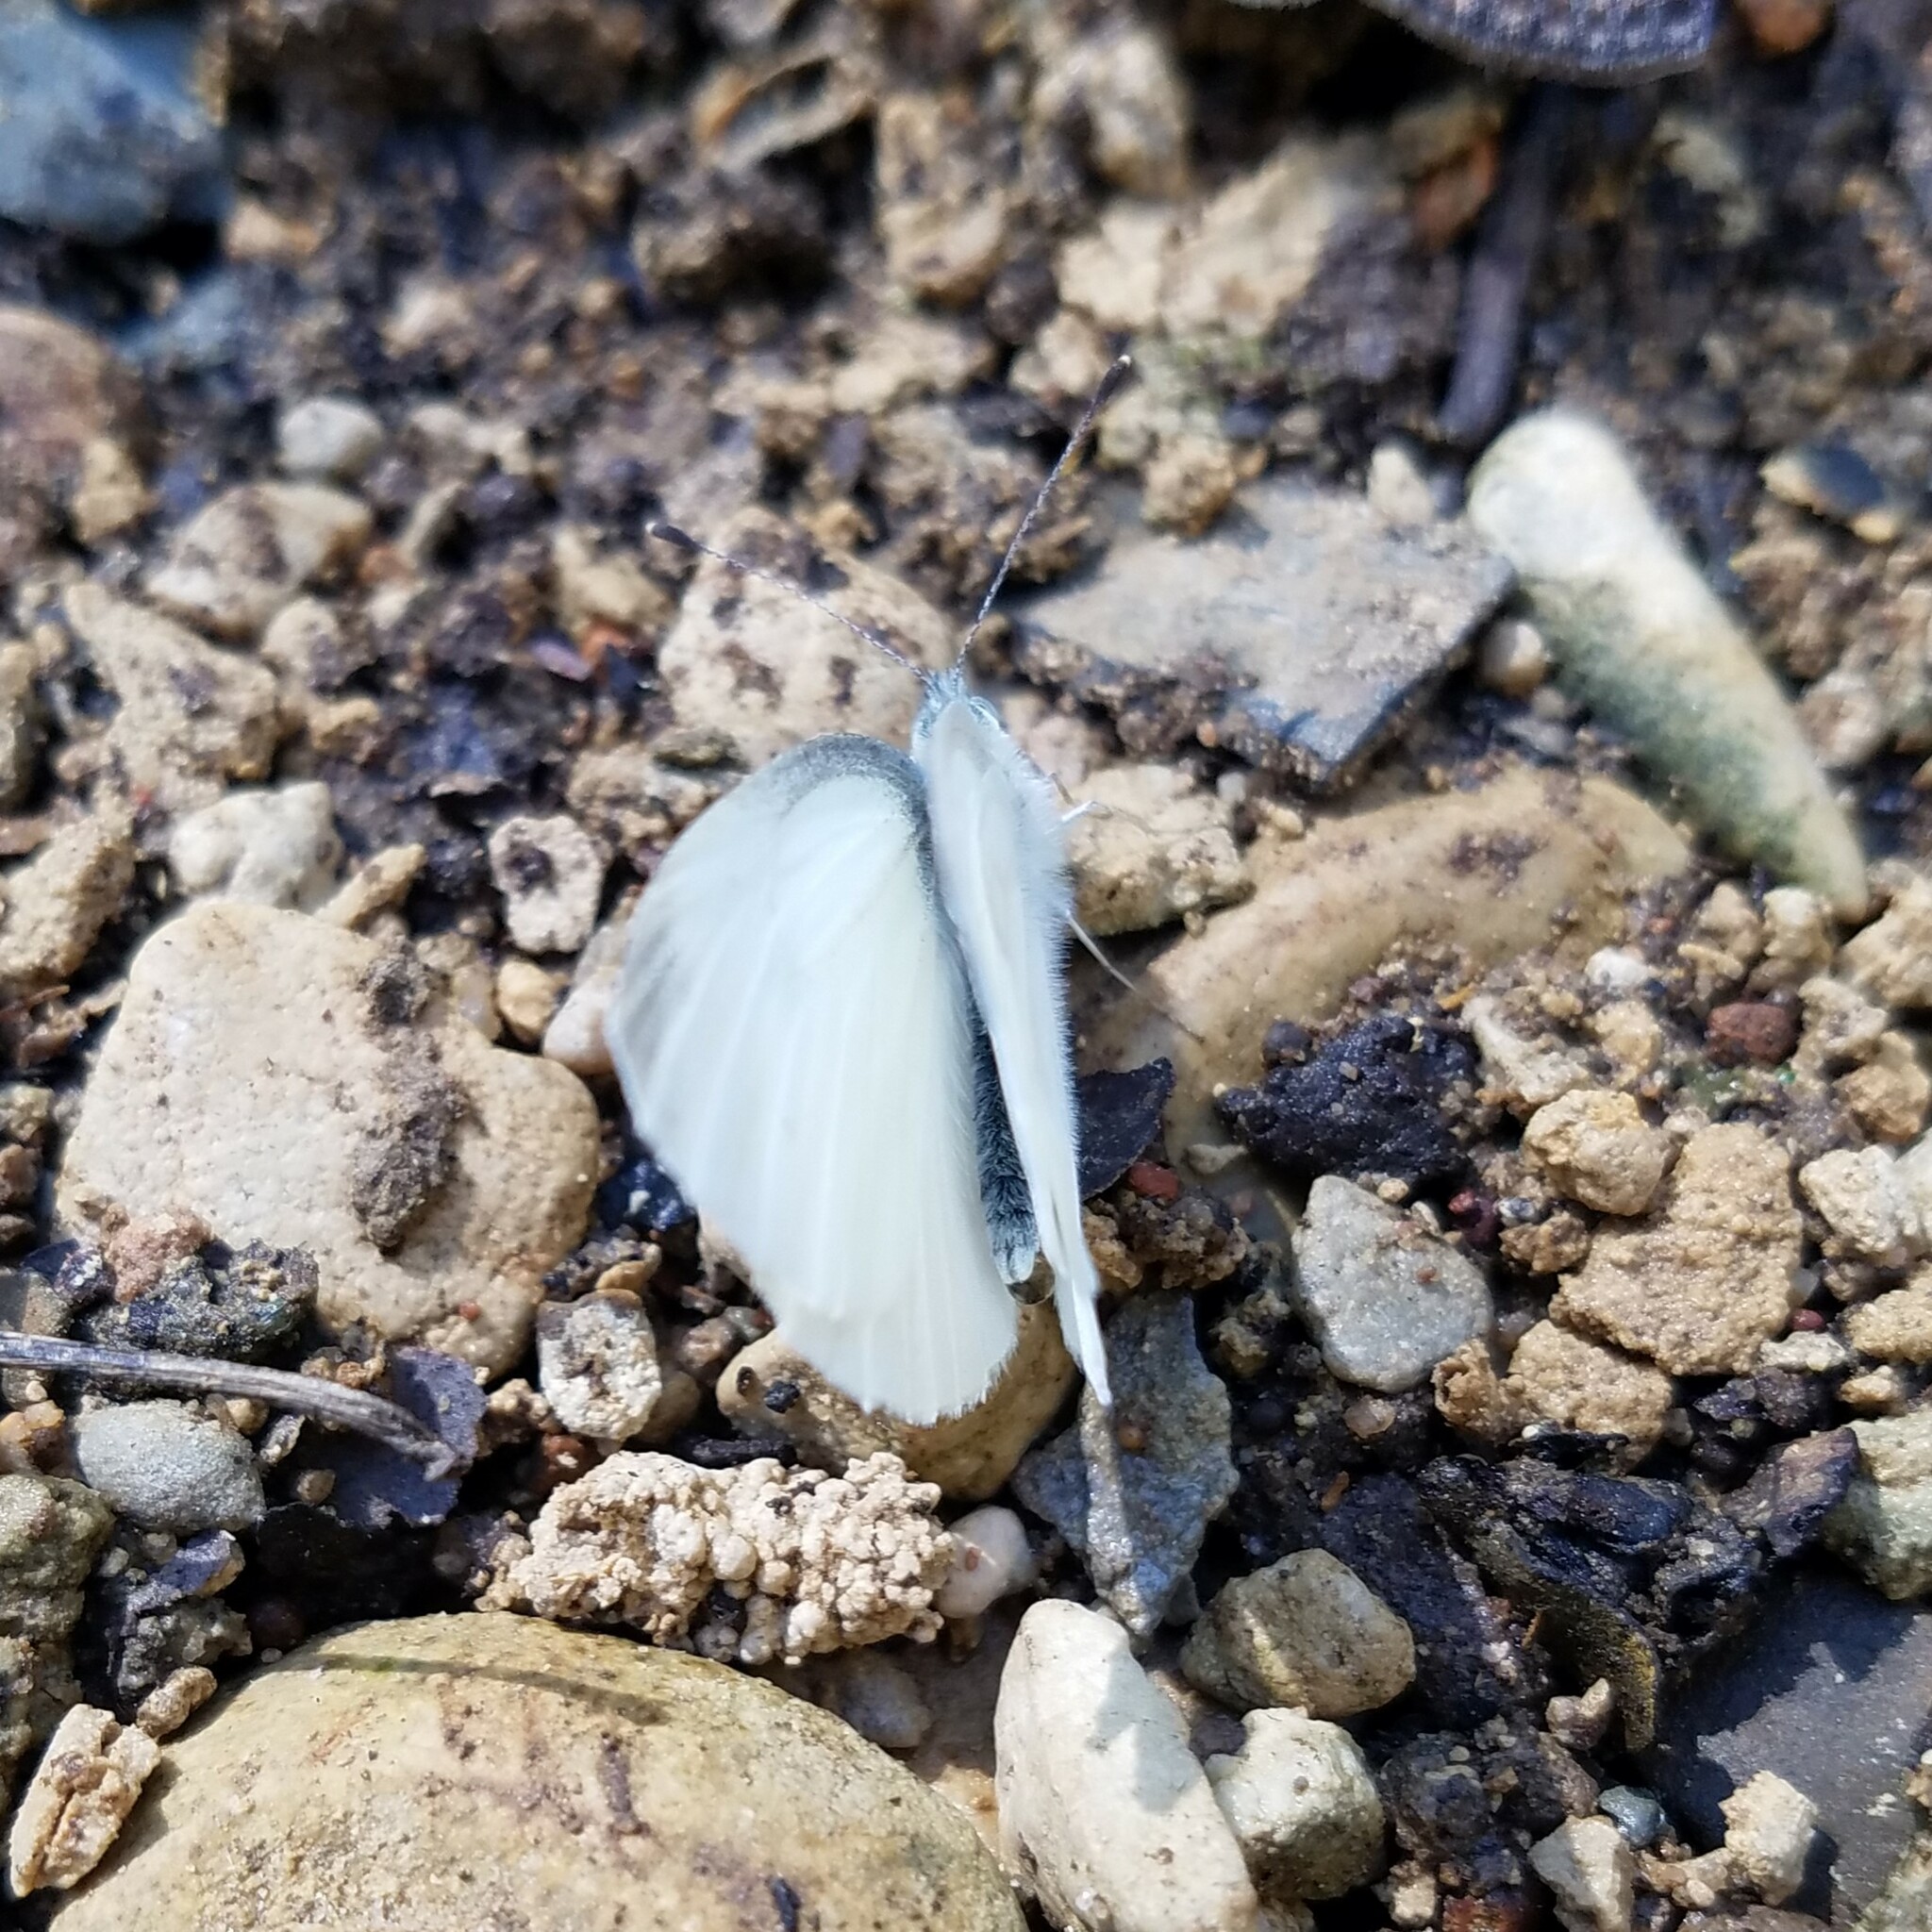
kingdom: Animalia
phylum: Arthropoda
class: Insecta
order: Lepidoptera
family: Pieridae
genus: Pieris
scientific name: Pieris virginiensis
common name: West virginia white
